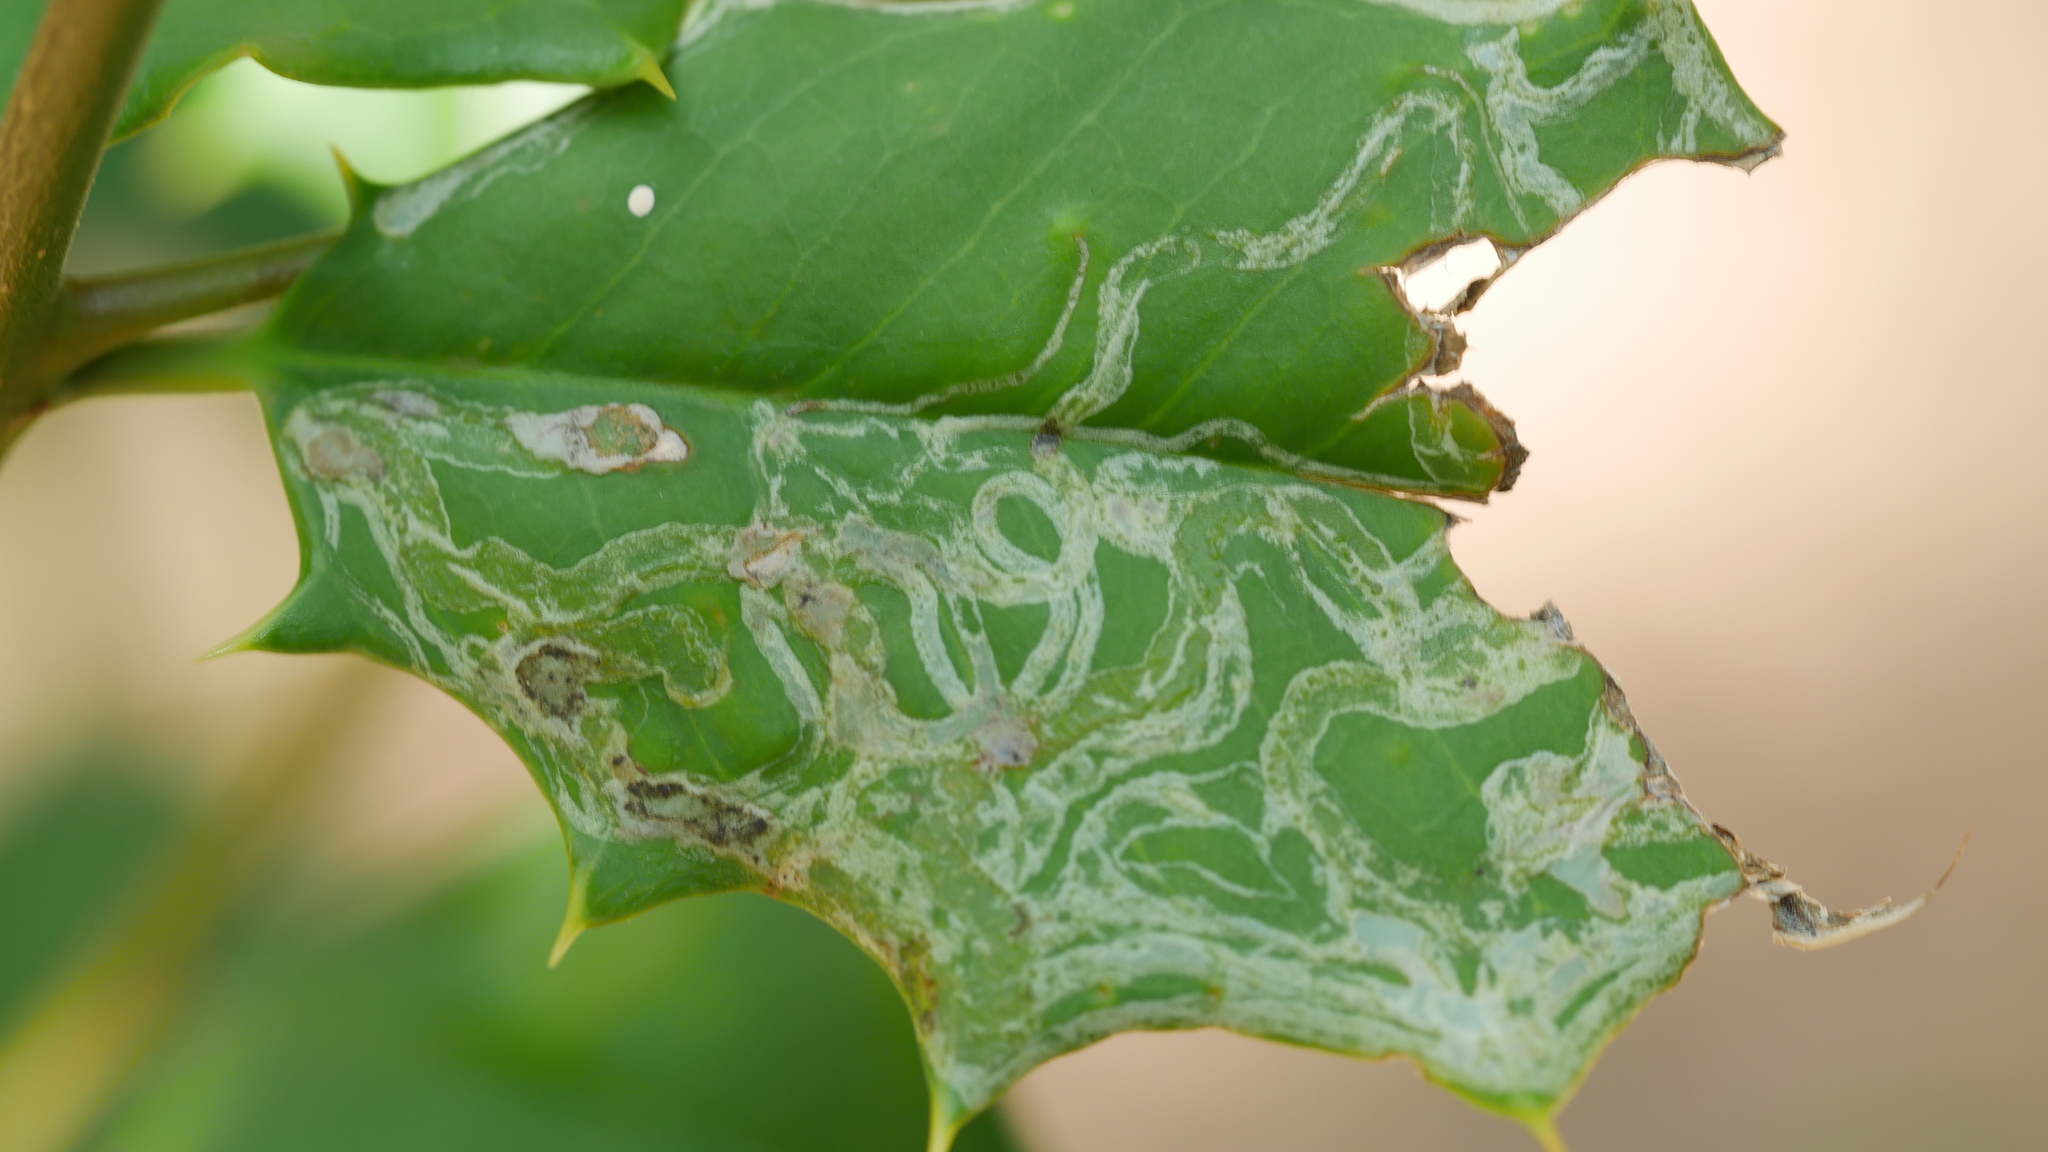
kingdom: Animalia
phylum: Arthropoda
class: Insecta
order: Diptera
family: Agromyzidae
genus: Phytomyza
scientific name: Phytomyza opacae
